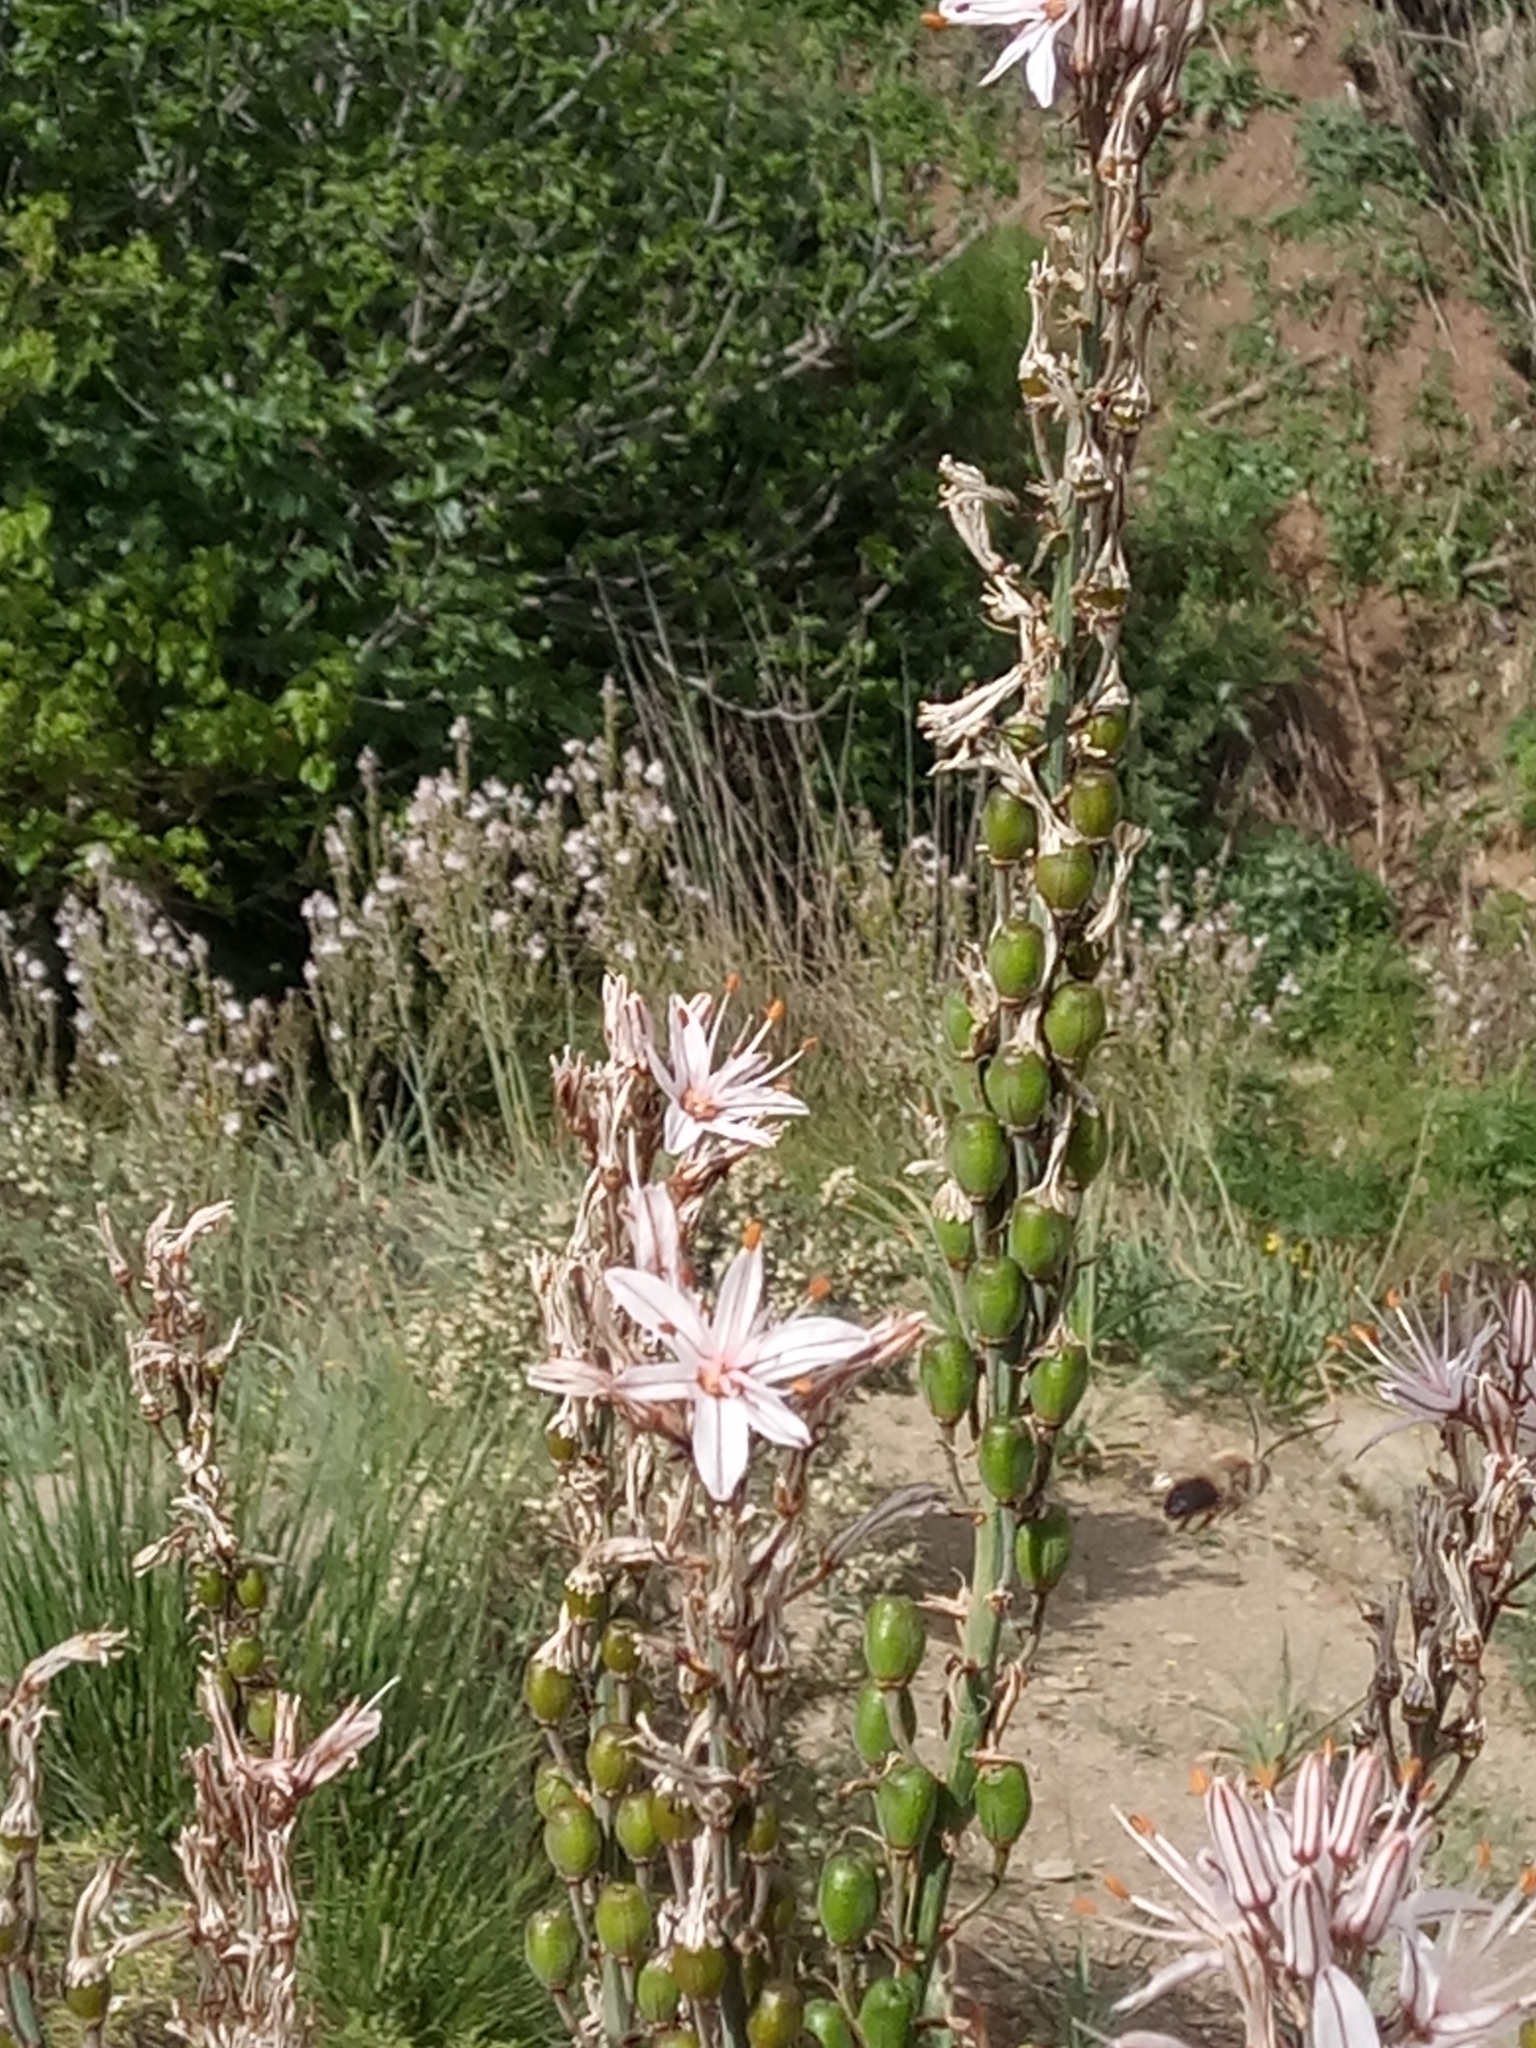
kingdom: Plantae
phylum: Tracheophyta
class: Liliopsida
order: Asparagales
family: Asphodelaceae
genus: Asphodelus
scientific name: Asphodelus ramosus
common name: Silverrod
